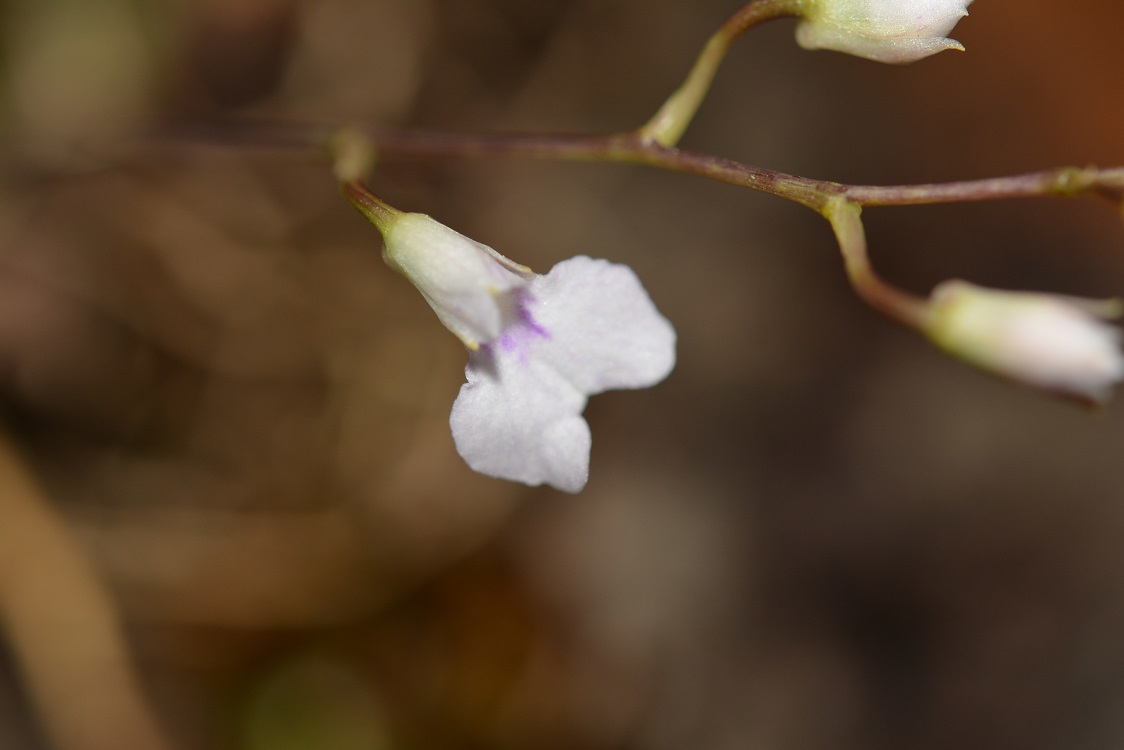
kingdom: Plantae
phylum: Tracheophyta
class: Liliopsida
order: Asparagales
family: Orchidaceae
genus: Ionopsis
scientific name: Ionopsis utricularioides
